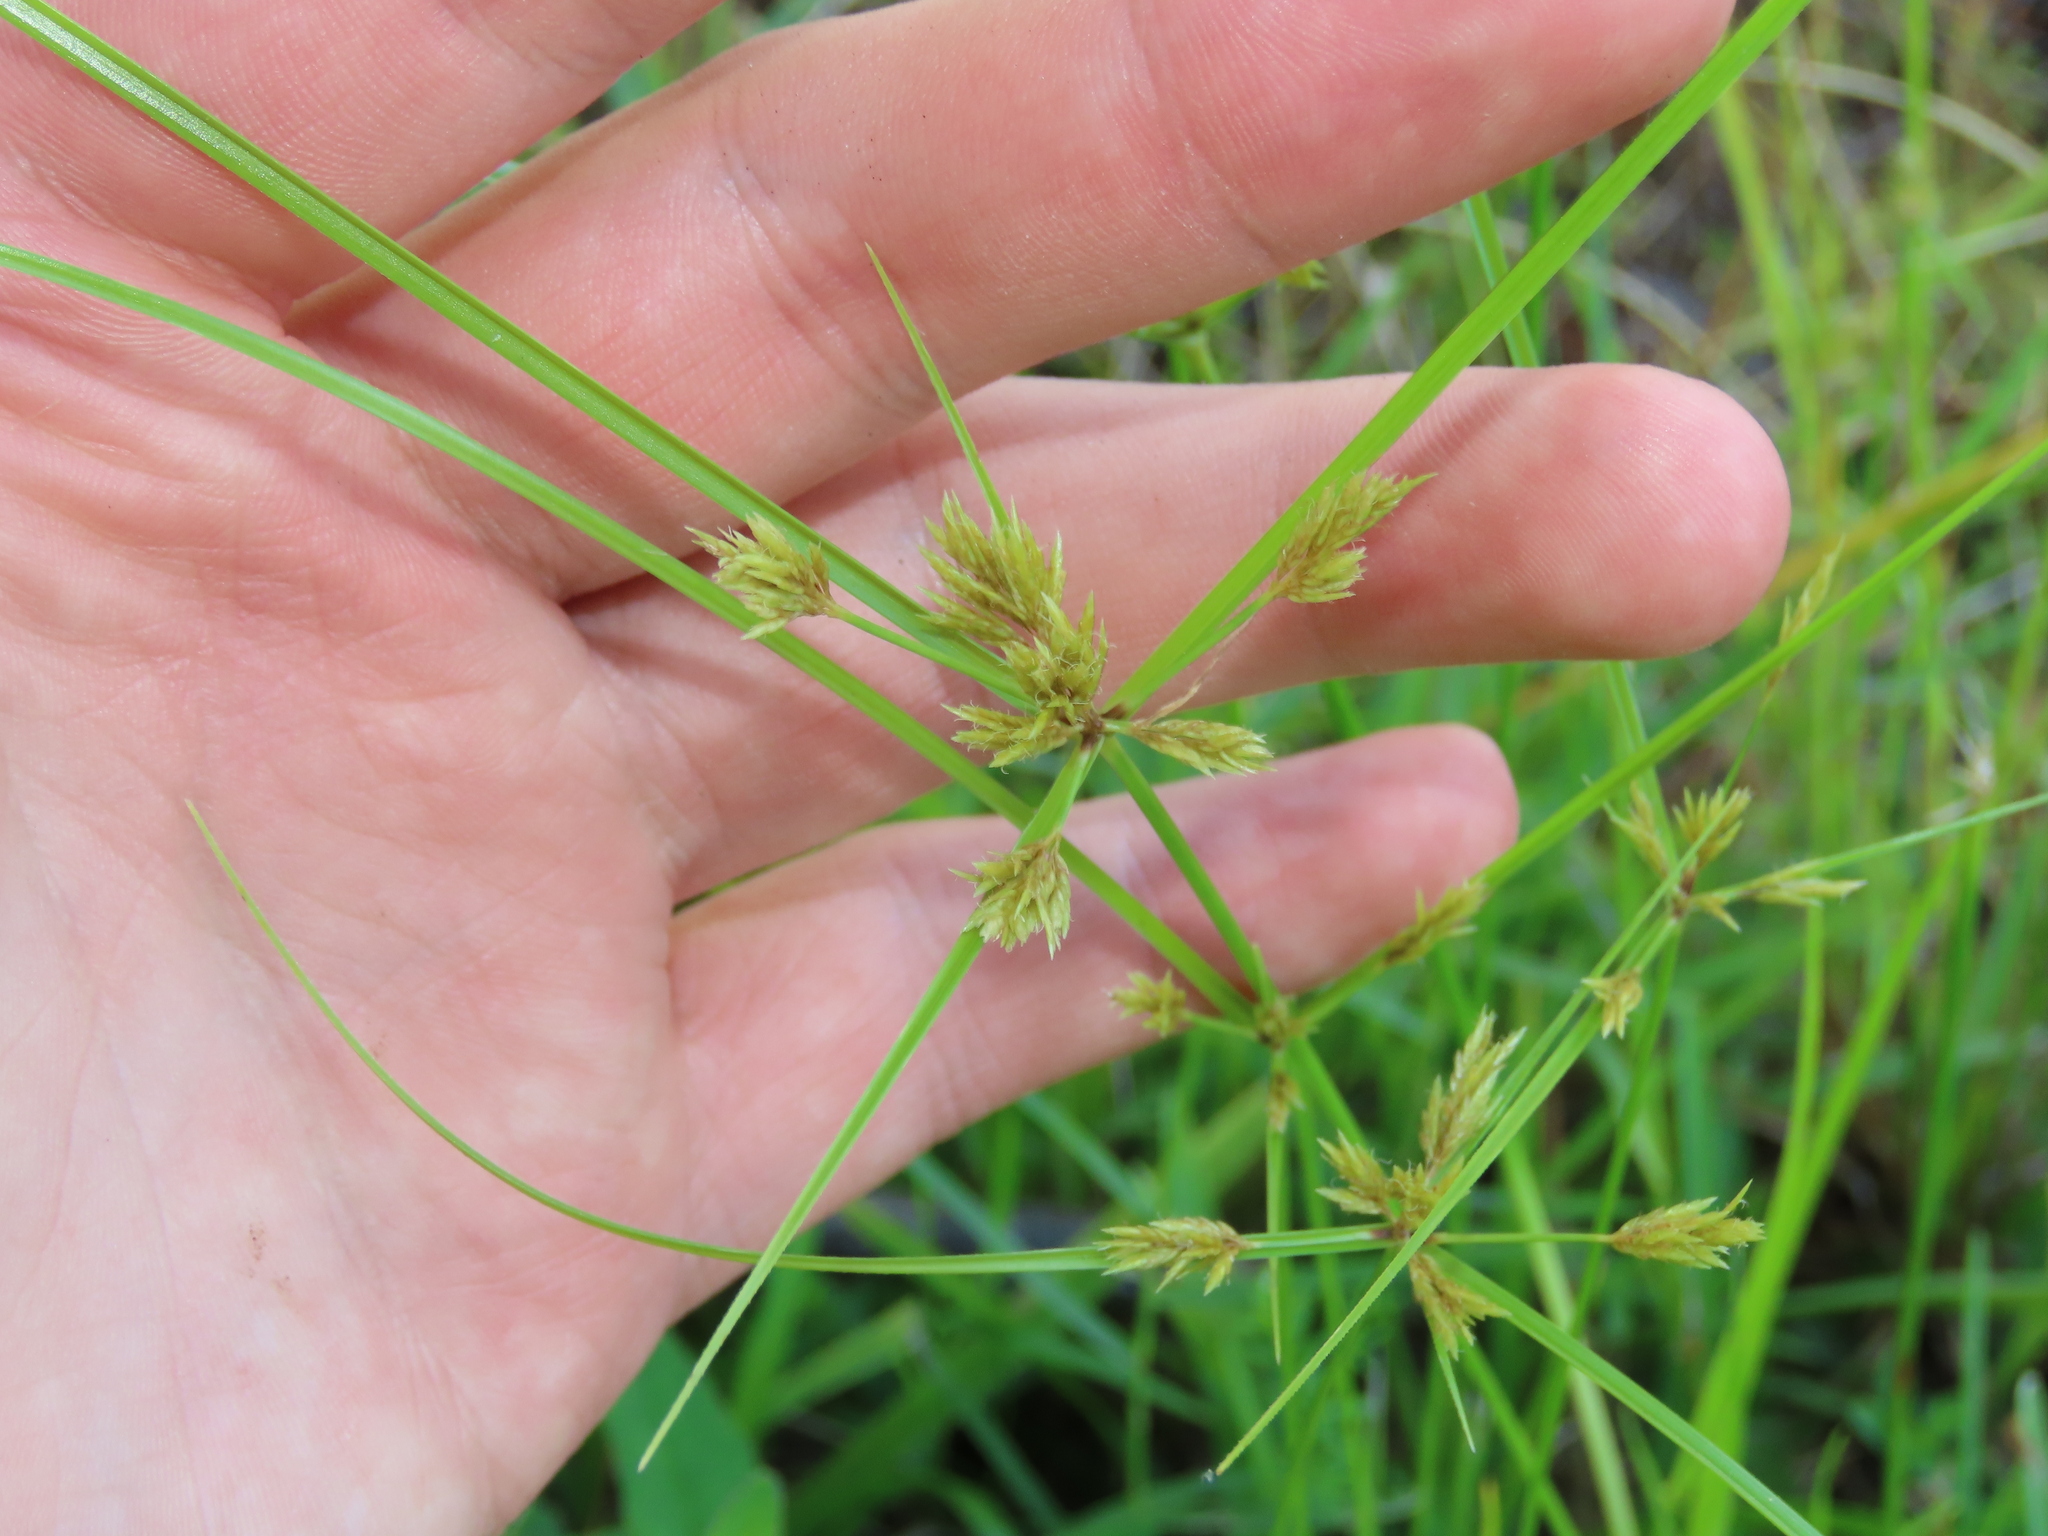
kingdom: Plantae
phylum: Tracheophyta
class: Liliopsida
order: Poales
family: Cyperaceae
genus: Cyperus
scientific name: Cyperus polystachyos
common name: Bunchy flat sedge
